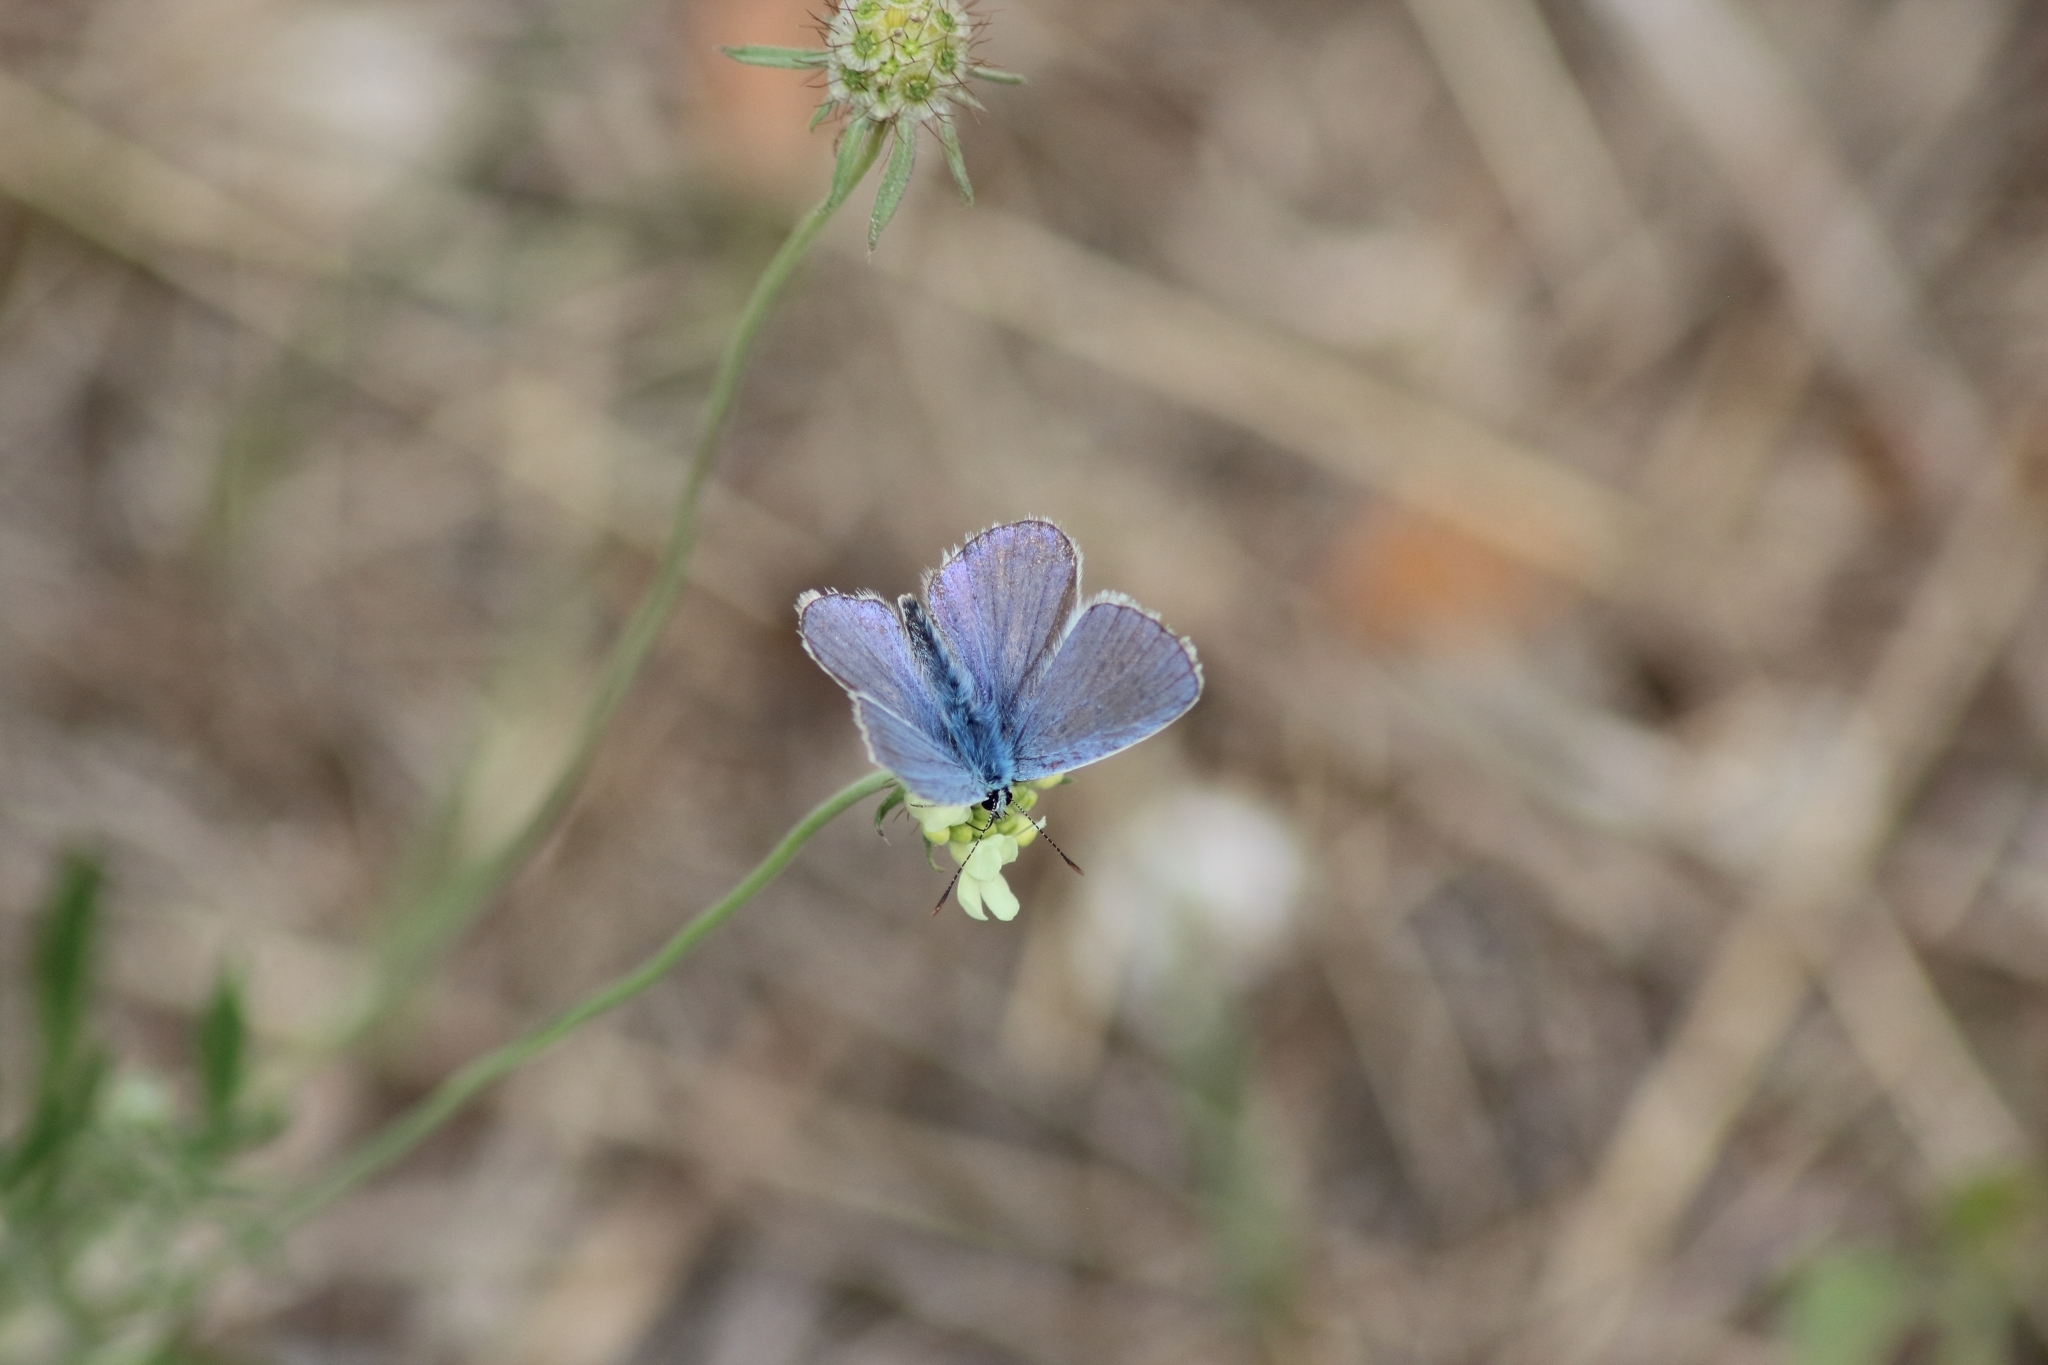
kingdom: Animalia
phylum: Arthropoda
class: Insecta
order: Lepidoptera
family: Lycaenidae
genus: Polyommatus
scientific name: Polyommatus icarus
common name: Common blue
